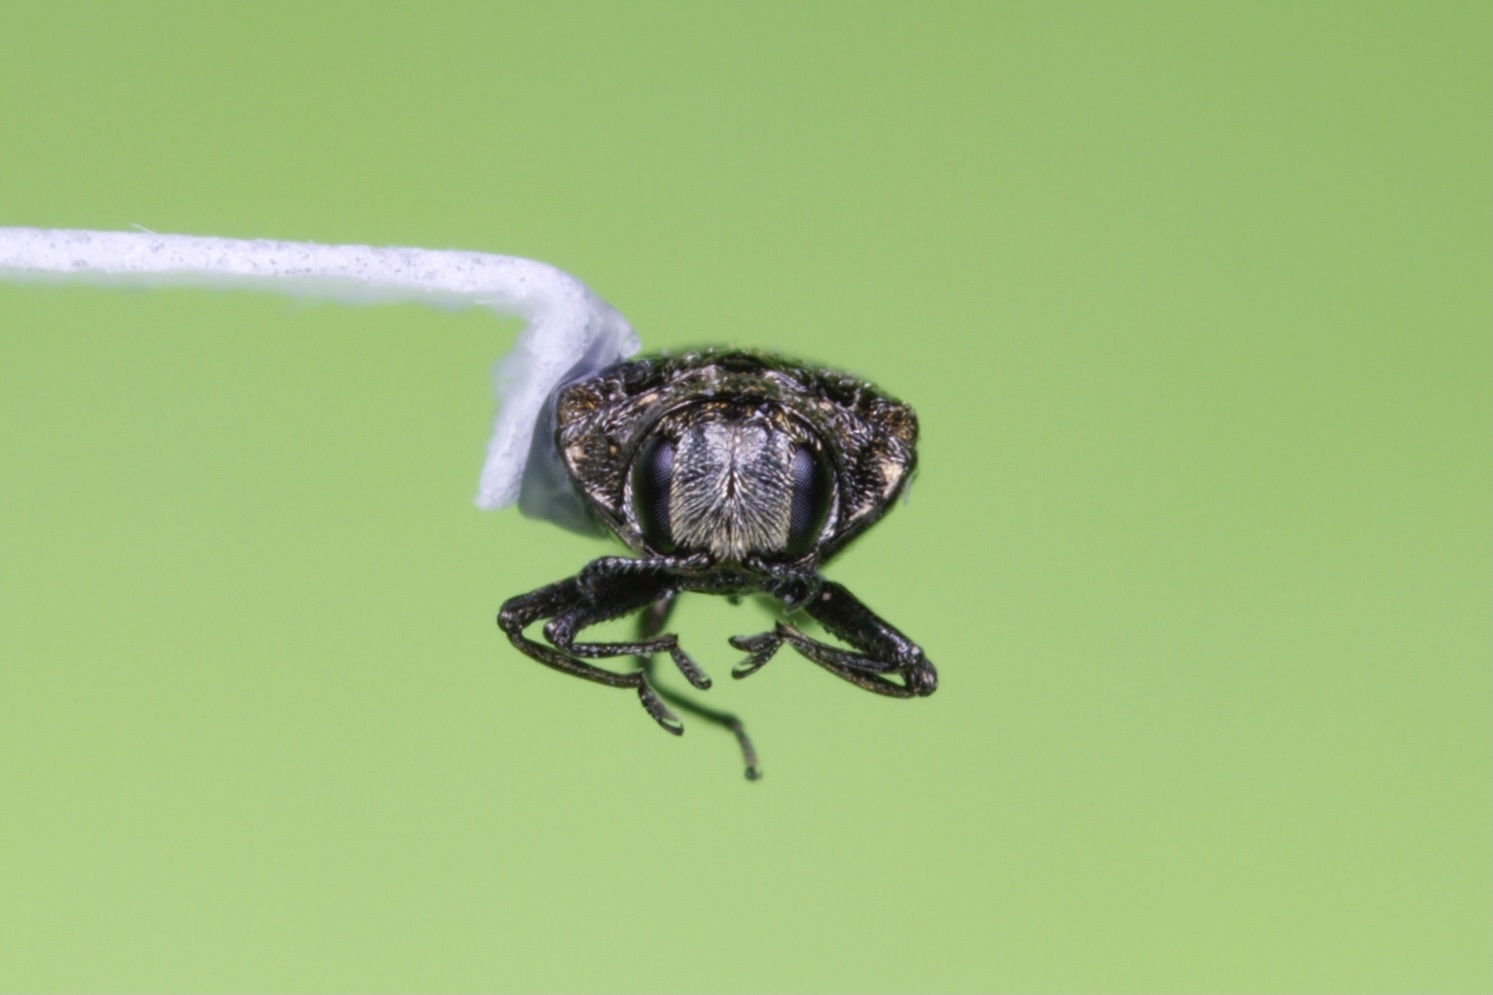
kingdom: Animalia
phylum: Arthropoda
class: Insecta
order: Coleoptera
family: Buprestidae
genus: Brachys
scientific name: Brachys aeruginosus
